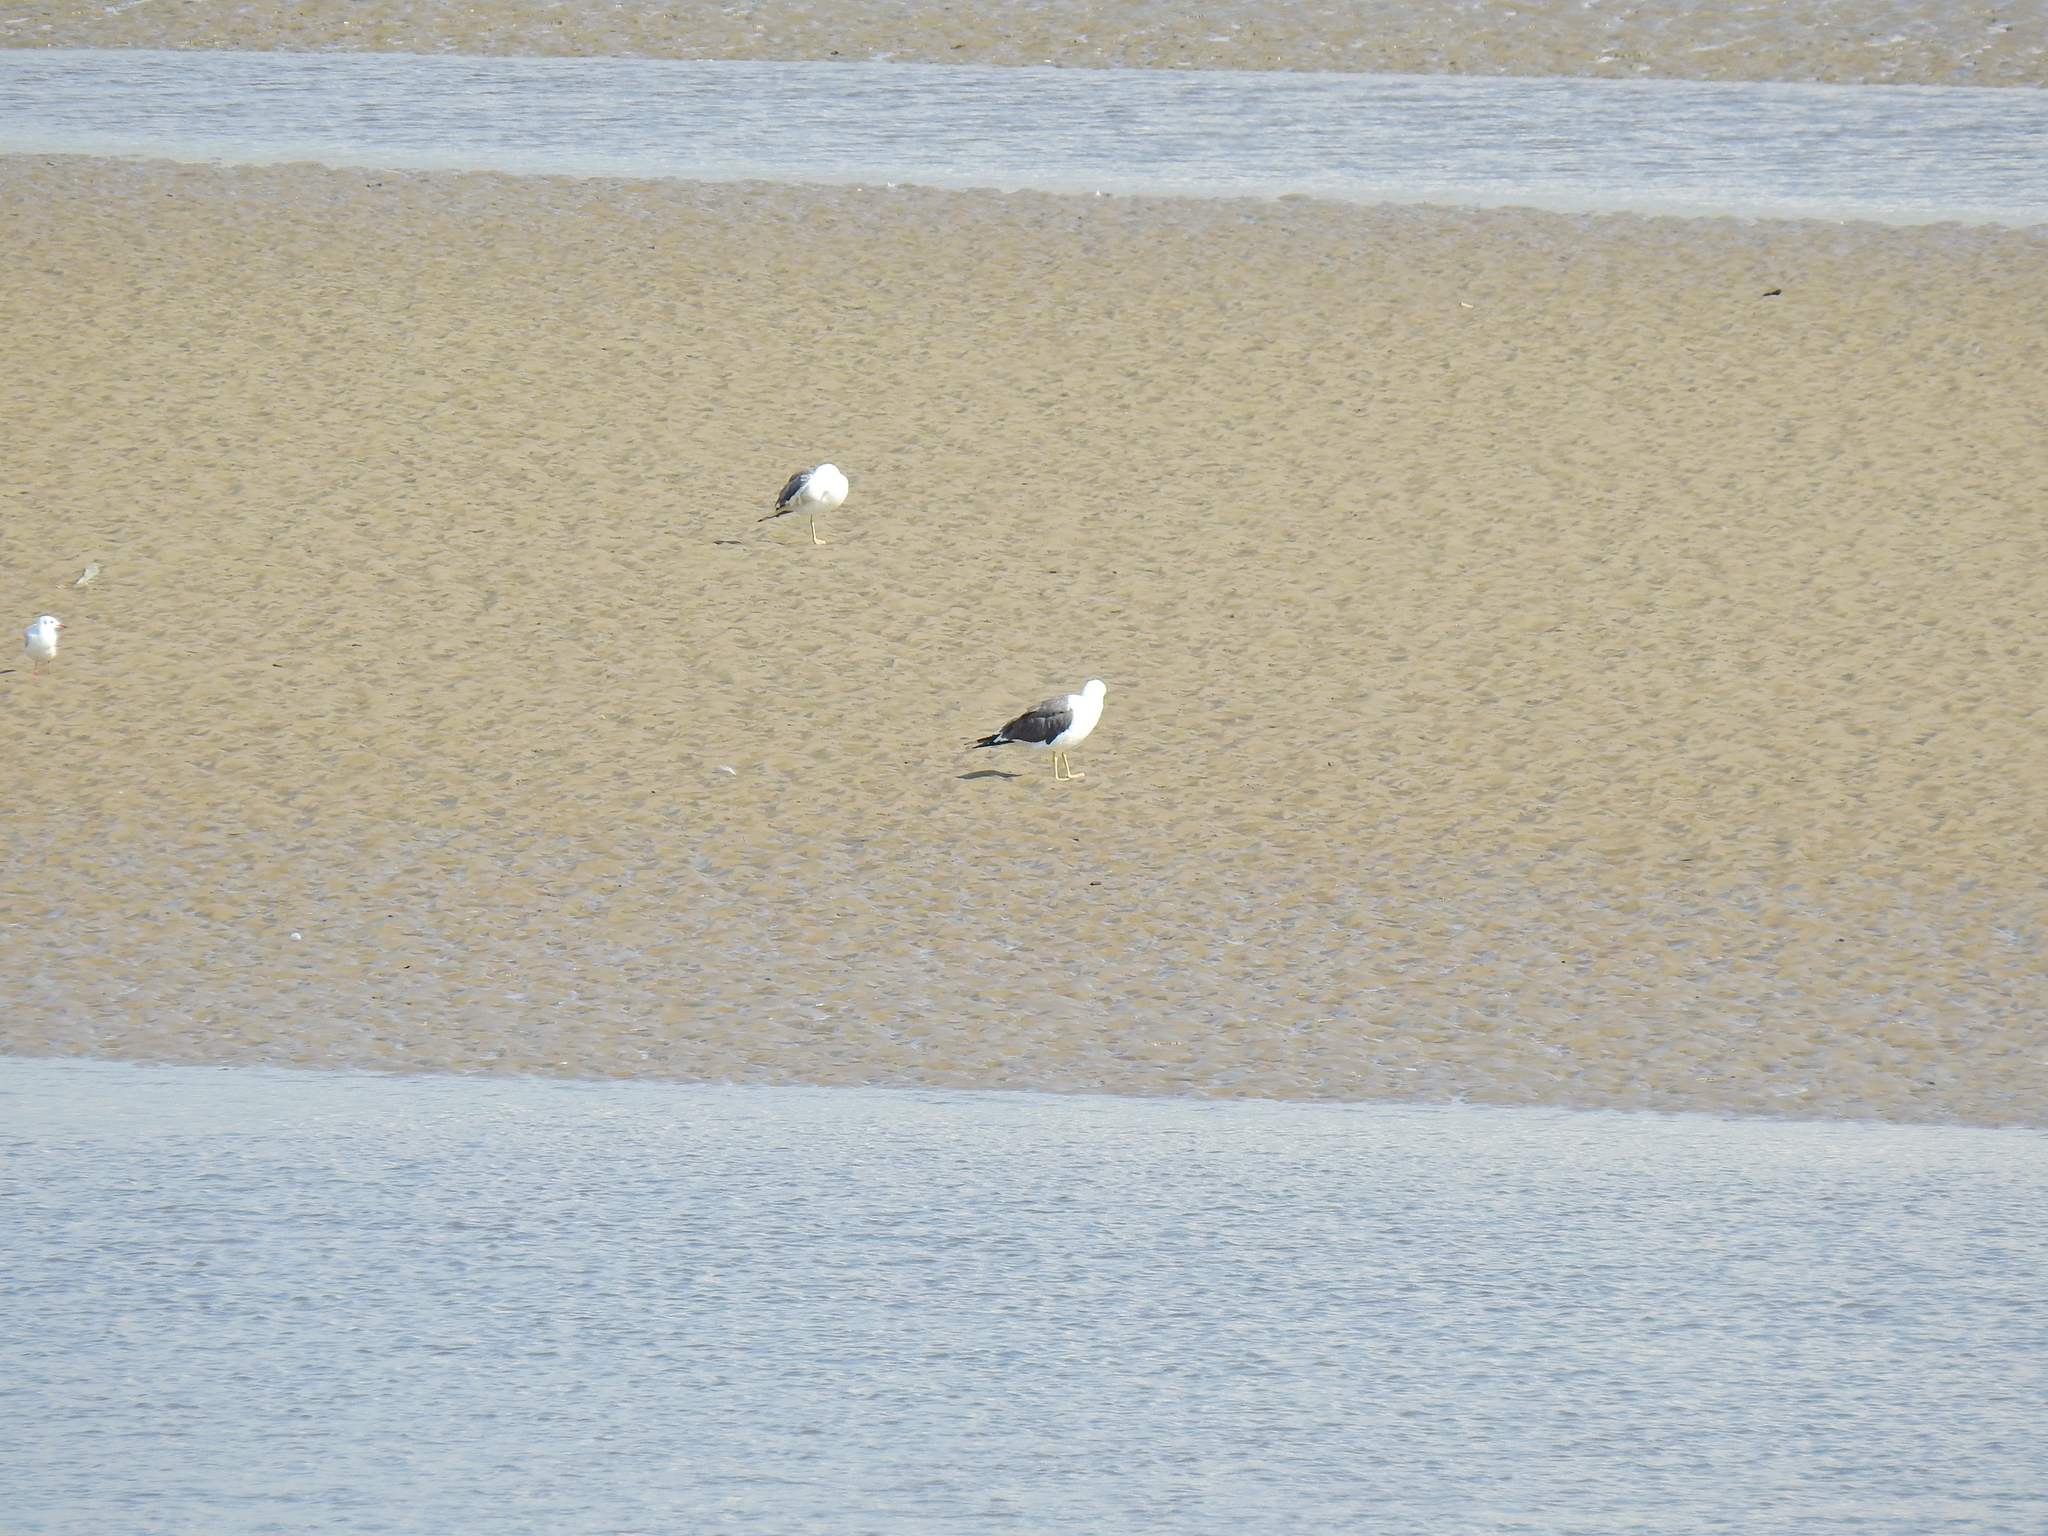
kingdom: Animalia
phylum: Chordata
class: Aves
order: Charadriiformes
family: Laridae
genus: Larus
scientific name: Larus fuscus
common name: Lesser black-backed gull
